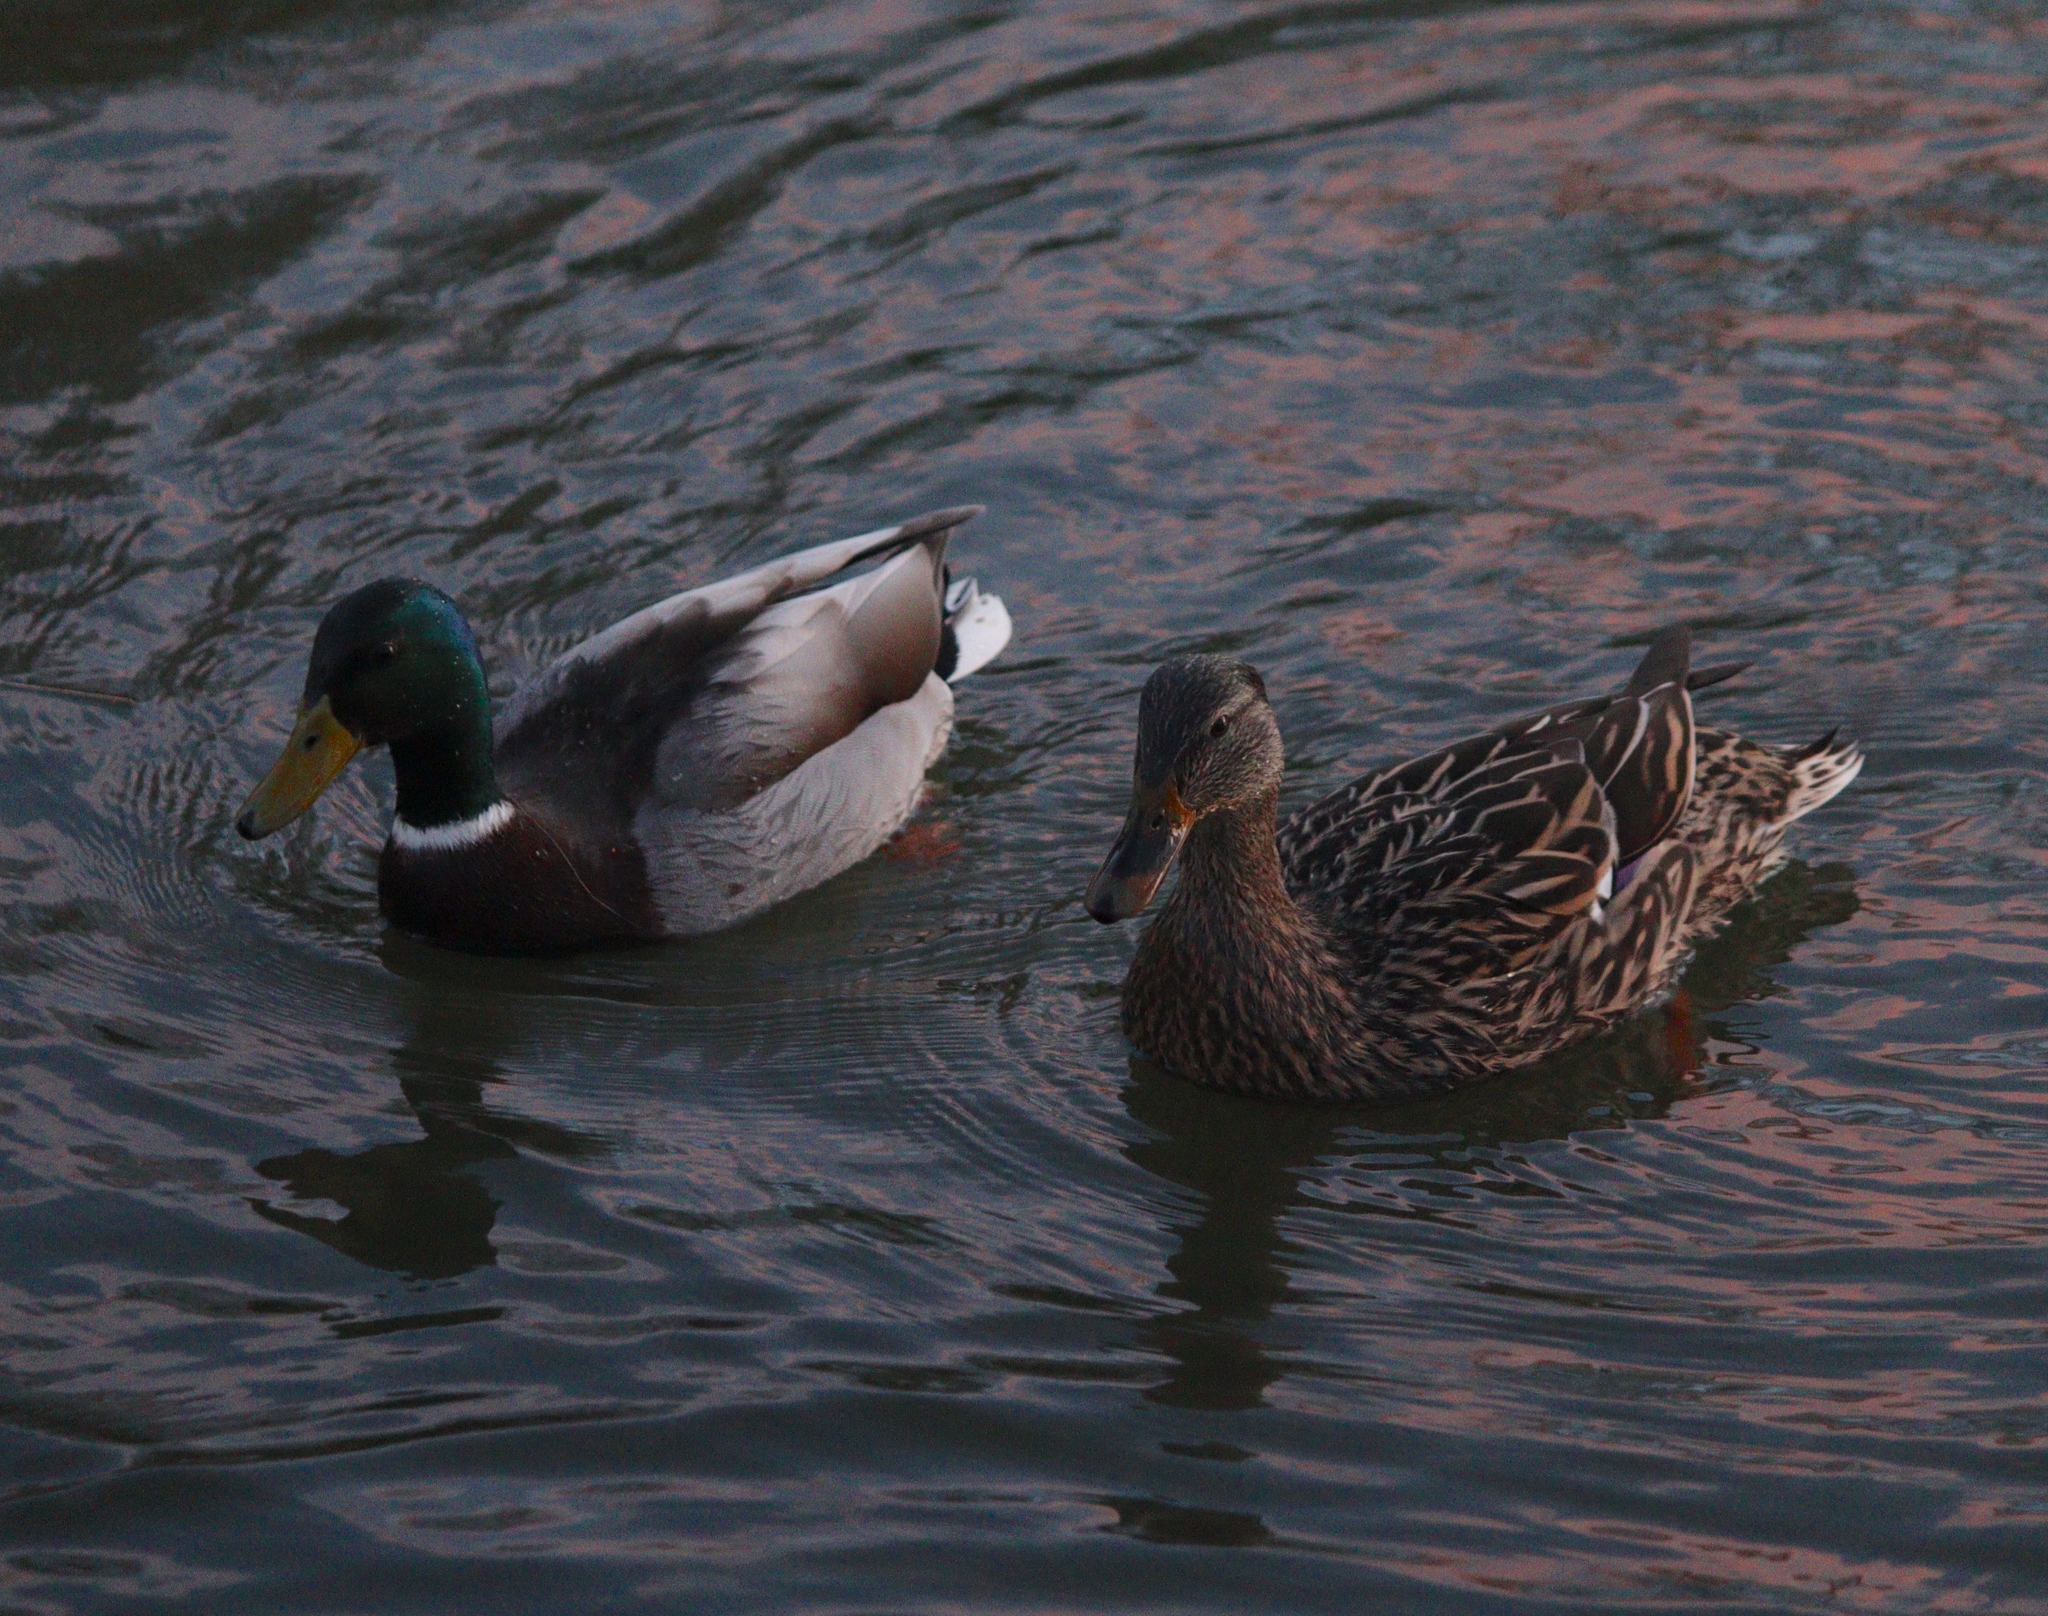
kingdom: Animalia
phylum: Chordata
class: Aves
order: Anseriformes
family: Anatidae
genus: Anas
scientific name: Anas platyrhynchos
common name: Mallard
